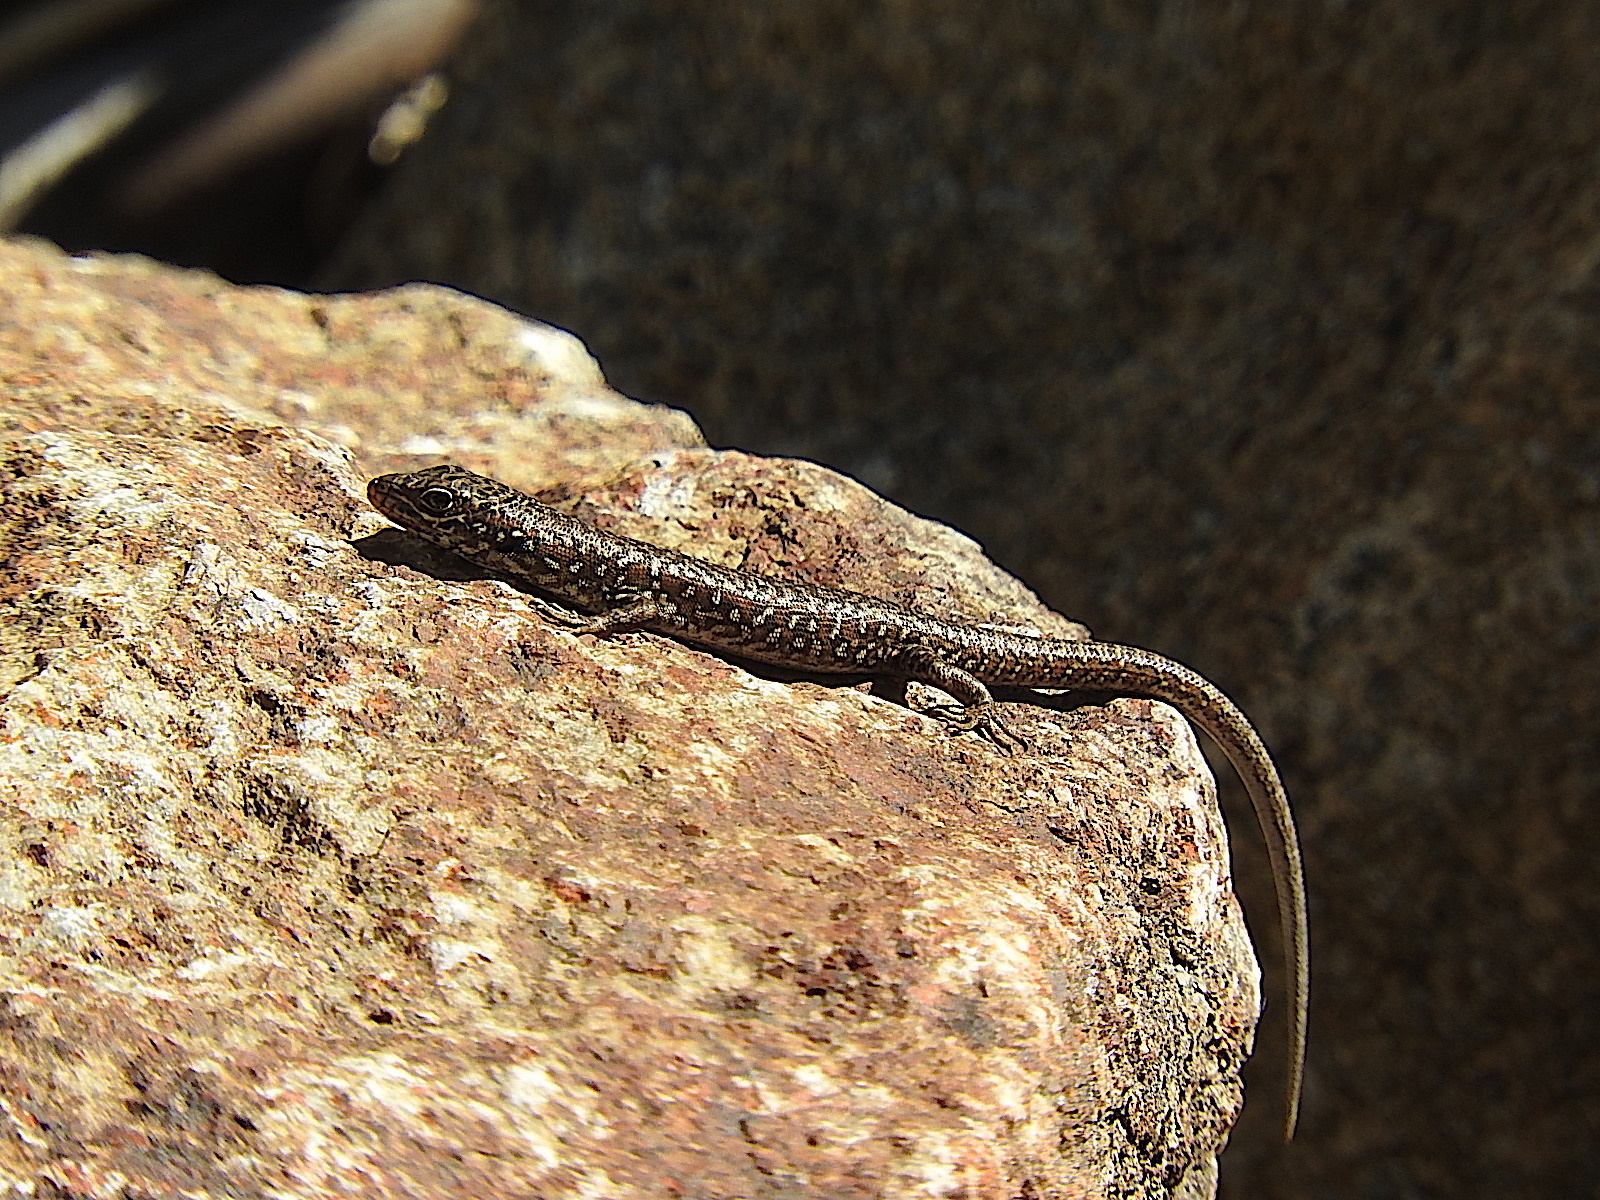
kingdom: Animalia
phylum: Chordata
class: Squamata
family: Scincidae
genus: Carinascincus
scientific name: Carinascincus ocellatus
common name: Ocellated cool-skink
